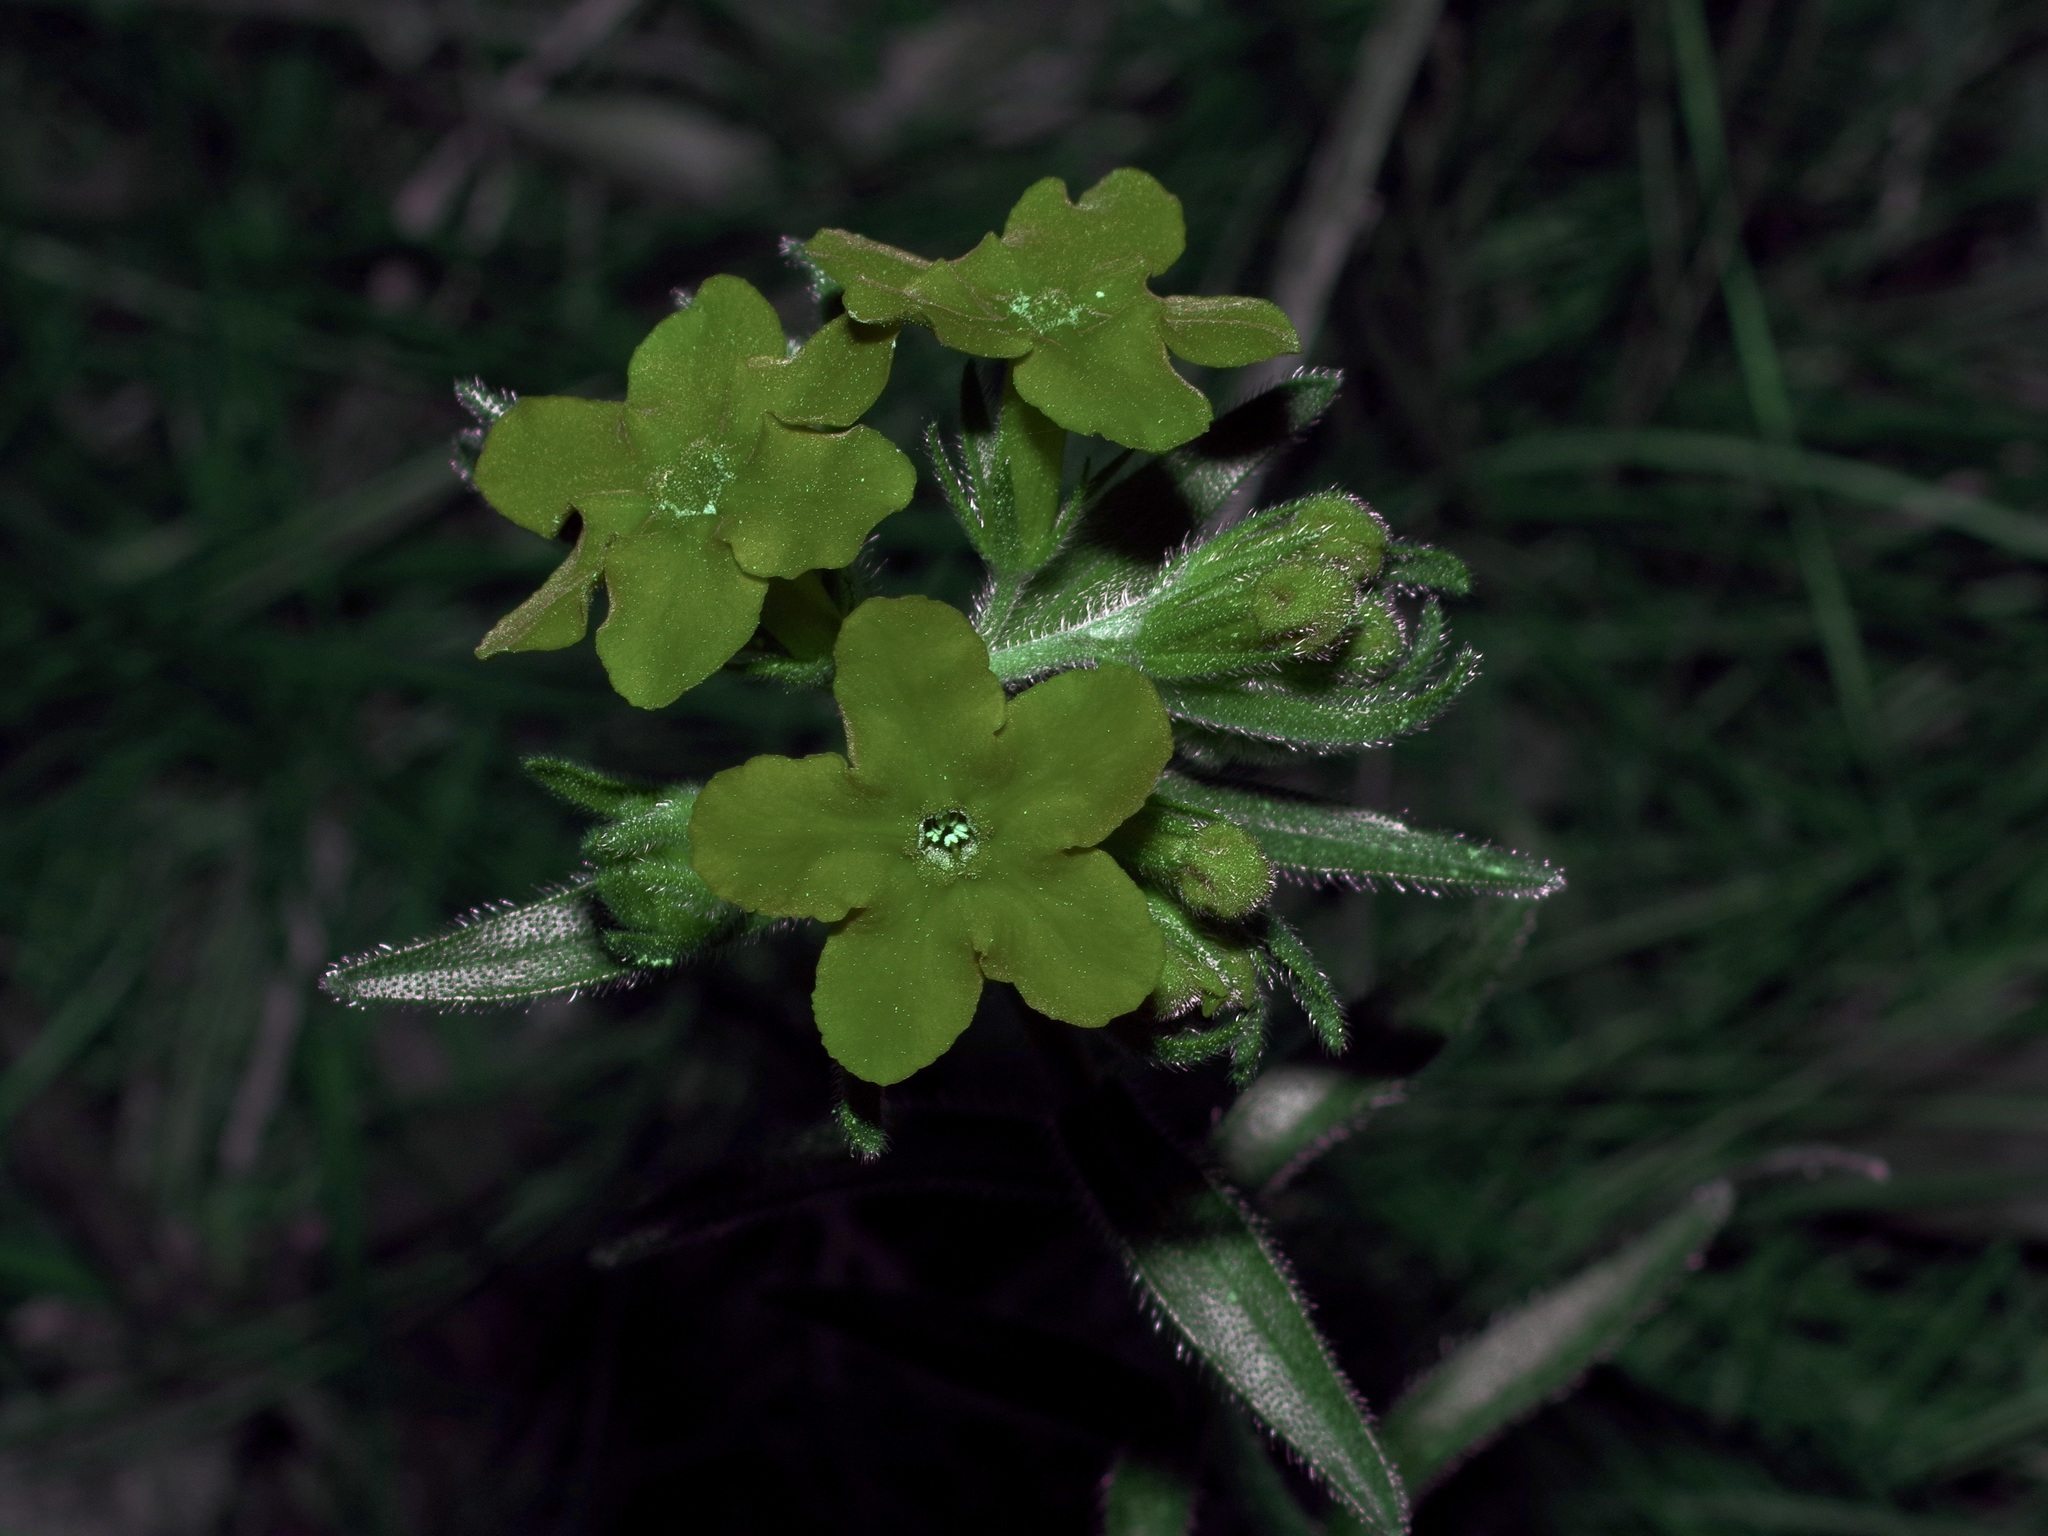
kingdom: Plantae
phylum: Tracheophyta
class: Magnoliopsida
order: Boraginales
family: Boraginaceae
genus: Lithospermum
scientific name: Lithospermum caroliniense
